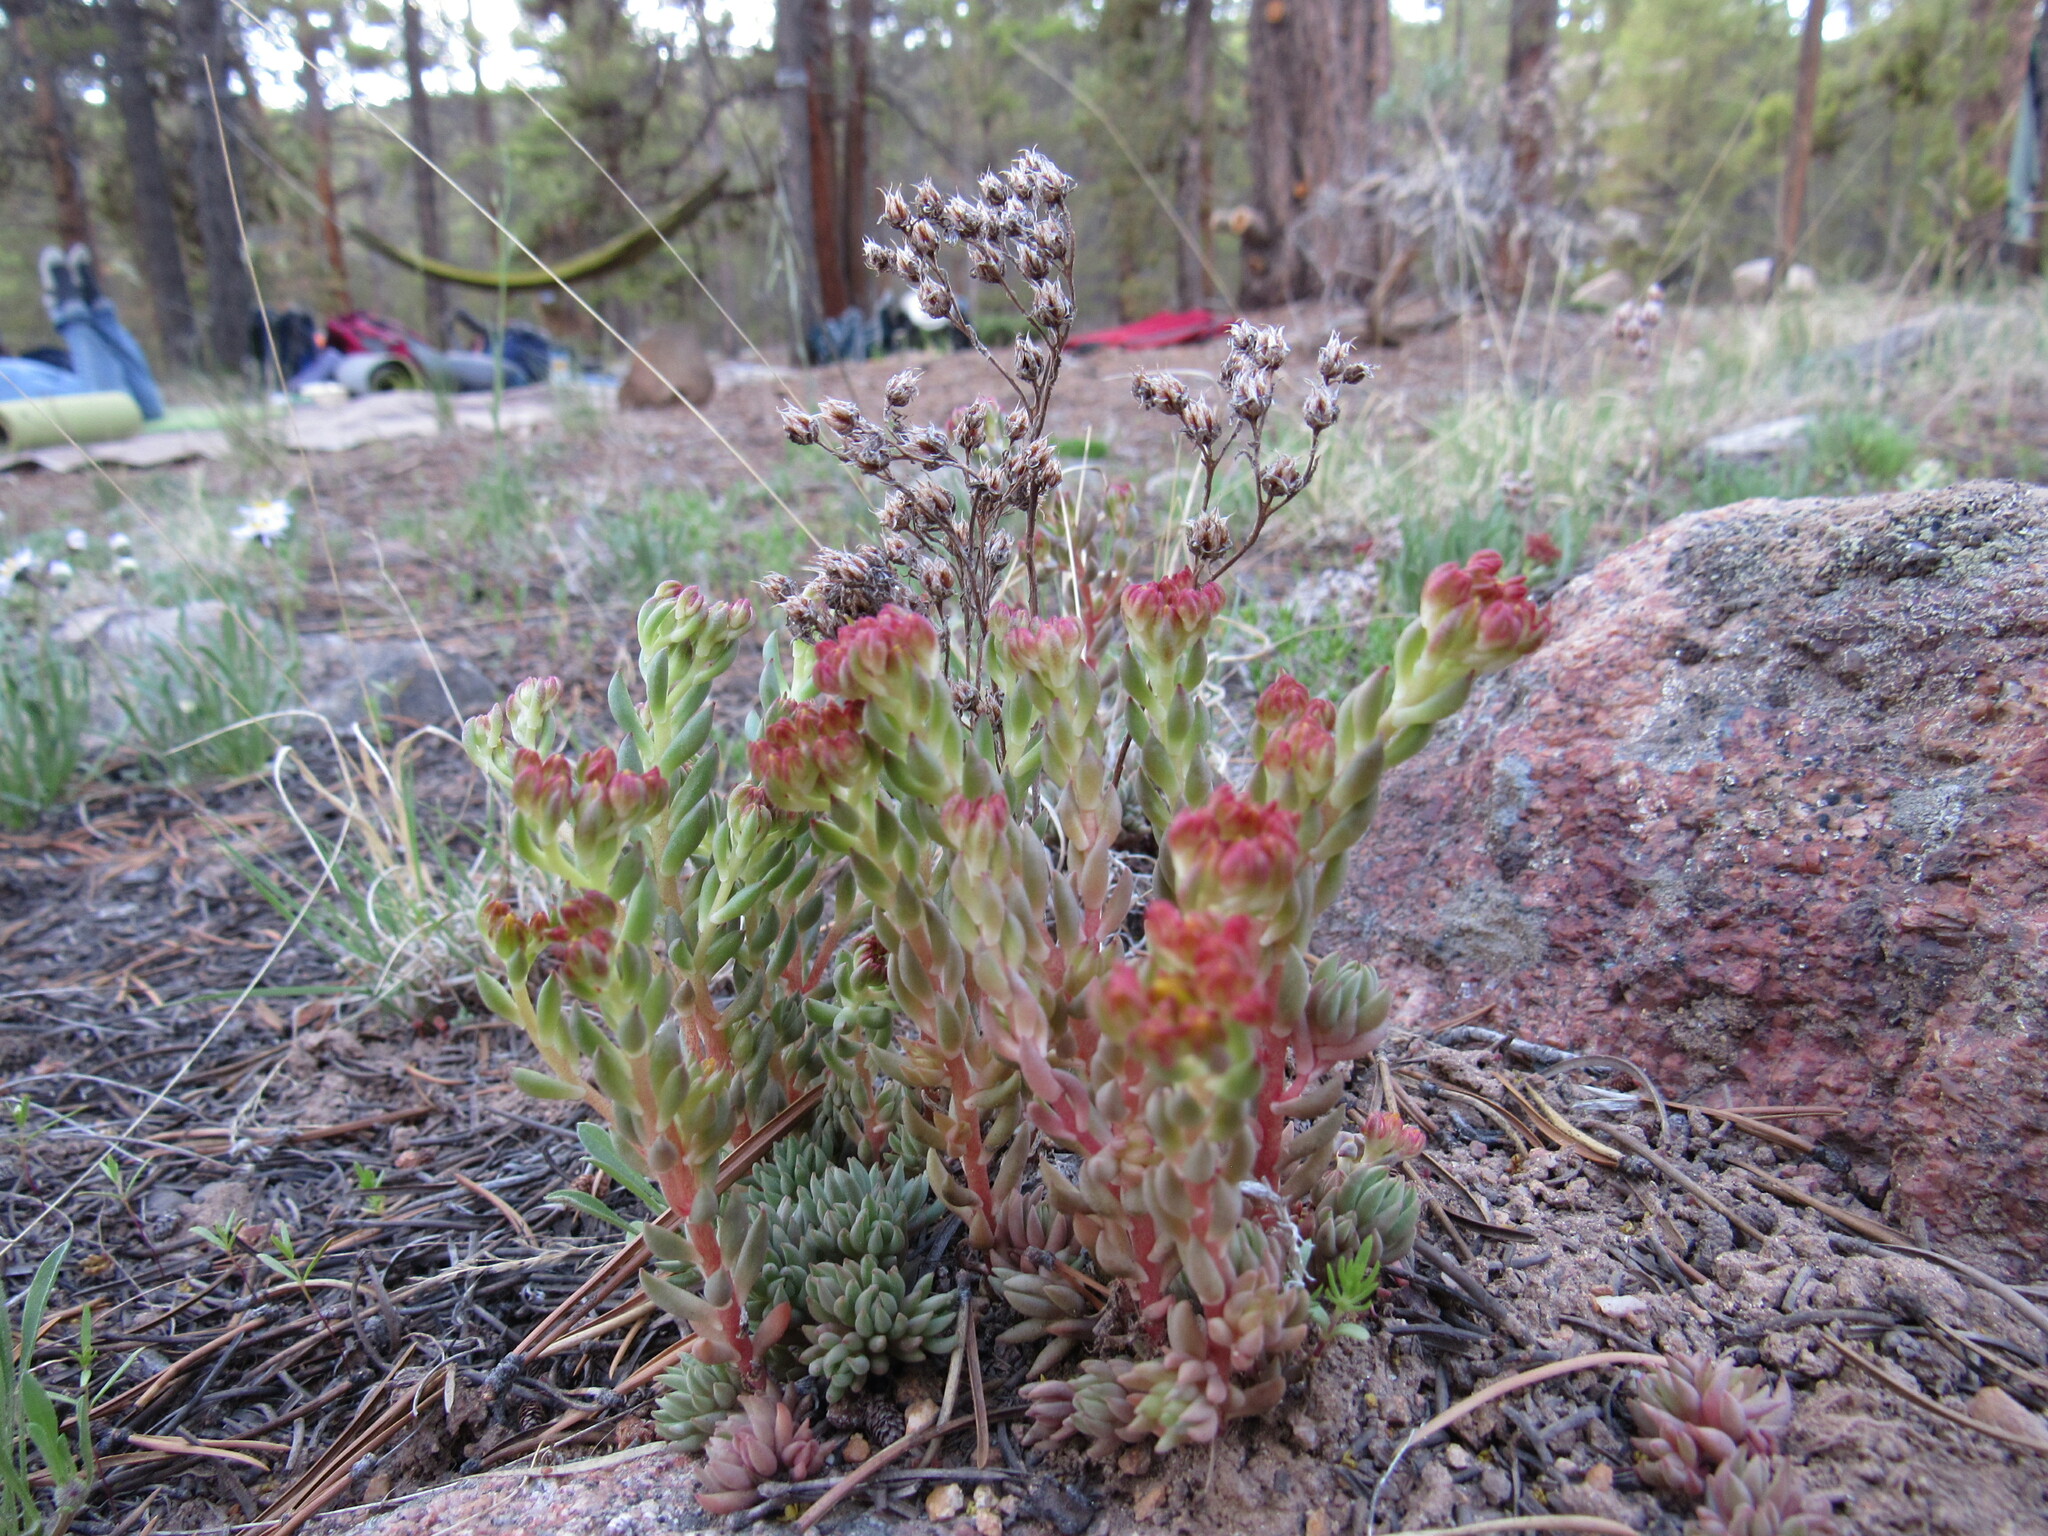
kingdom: Plantae
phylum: Tracheophyta
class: Magnoliopsida
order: Saxifragales
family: Crassulaceae
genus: Sedum
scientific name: Sedum lanceolatum
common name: Common stonecrop
